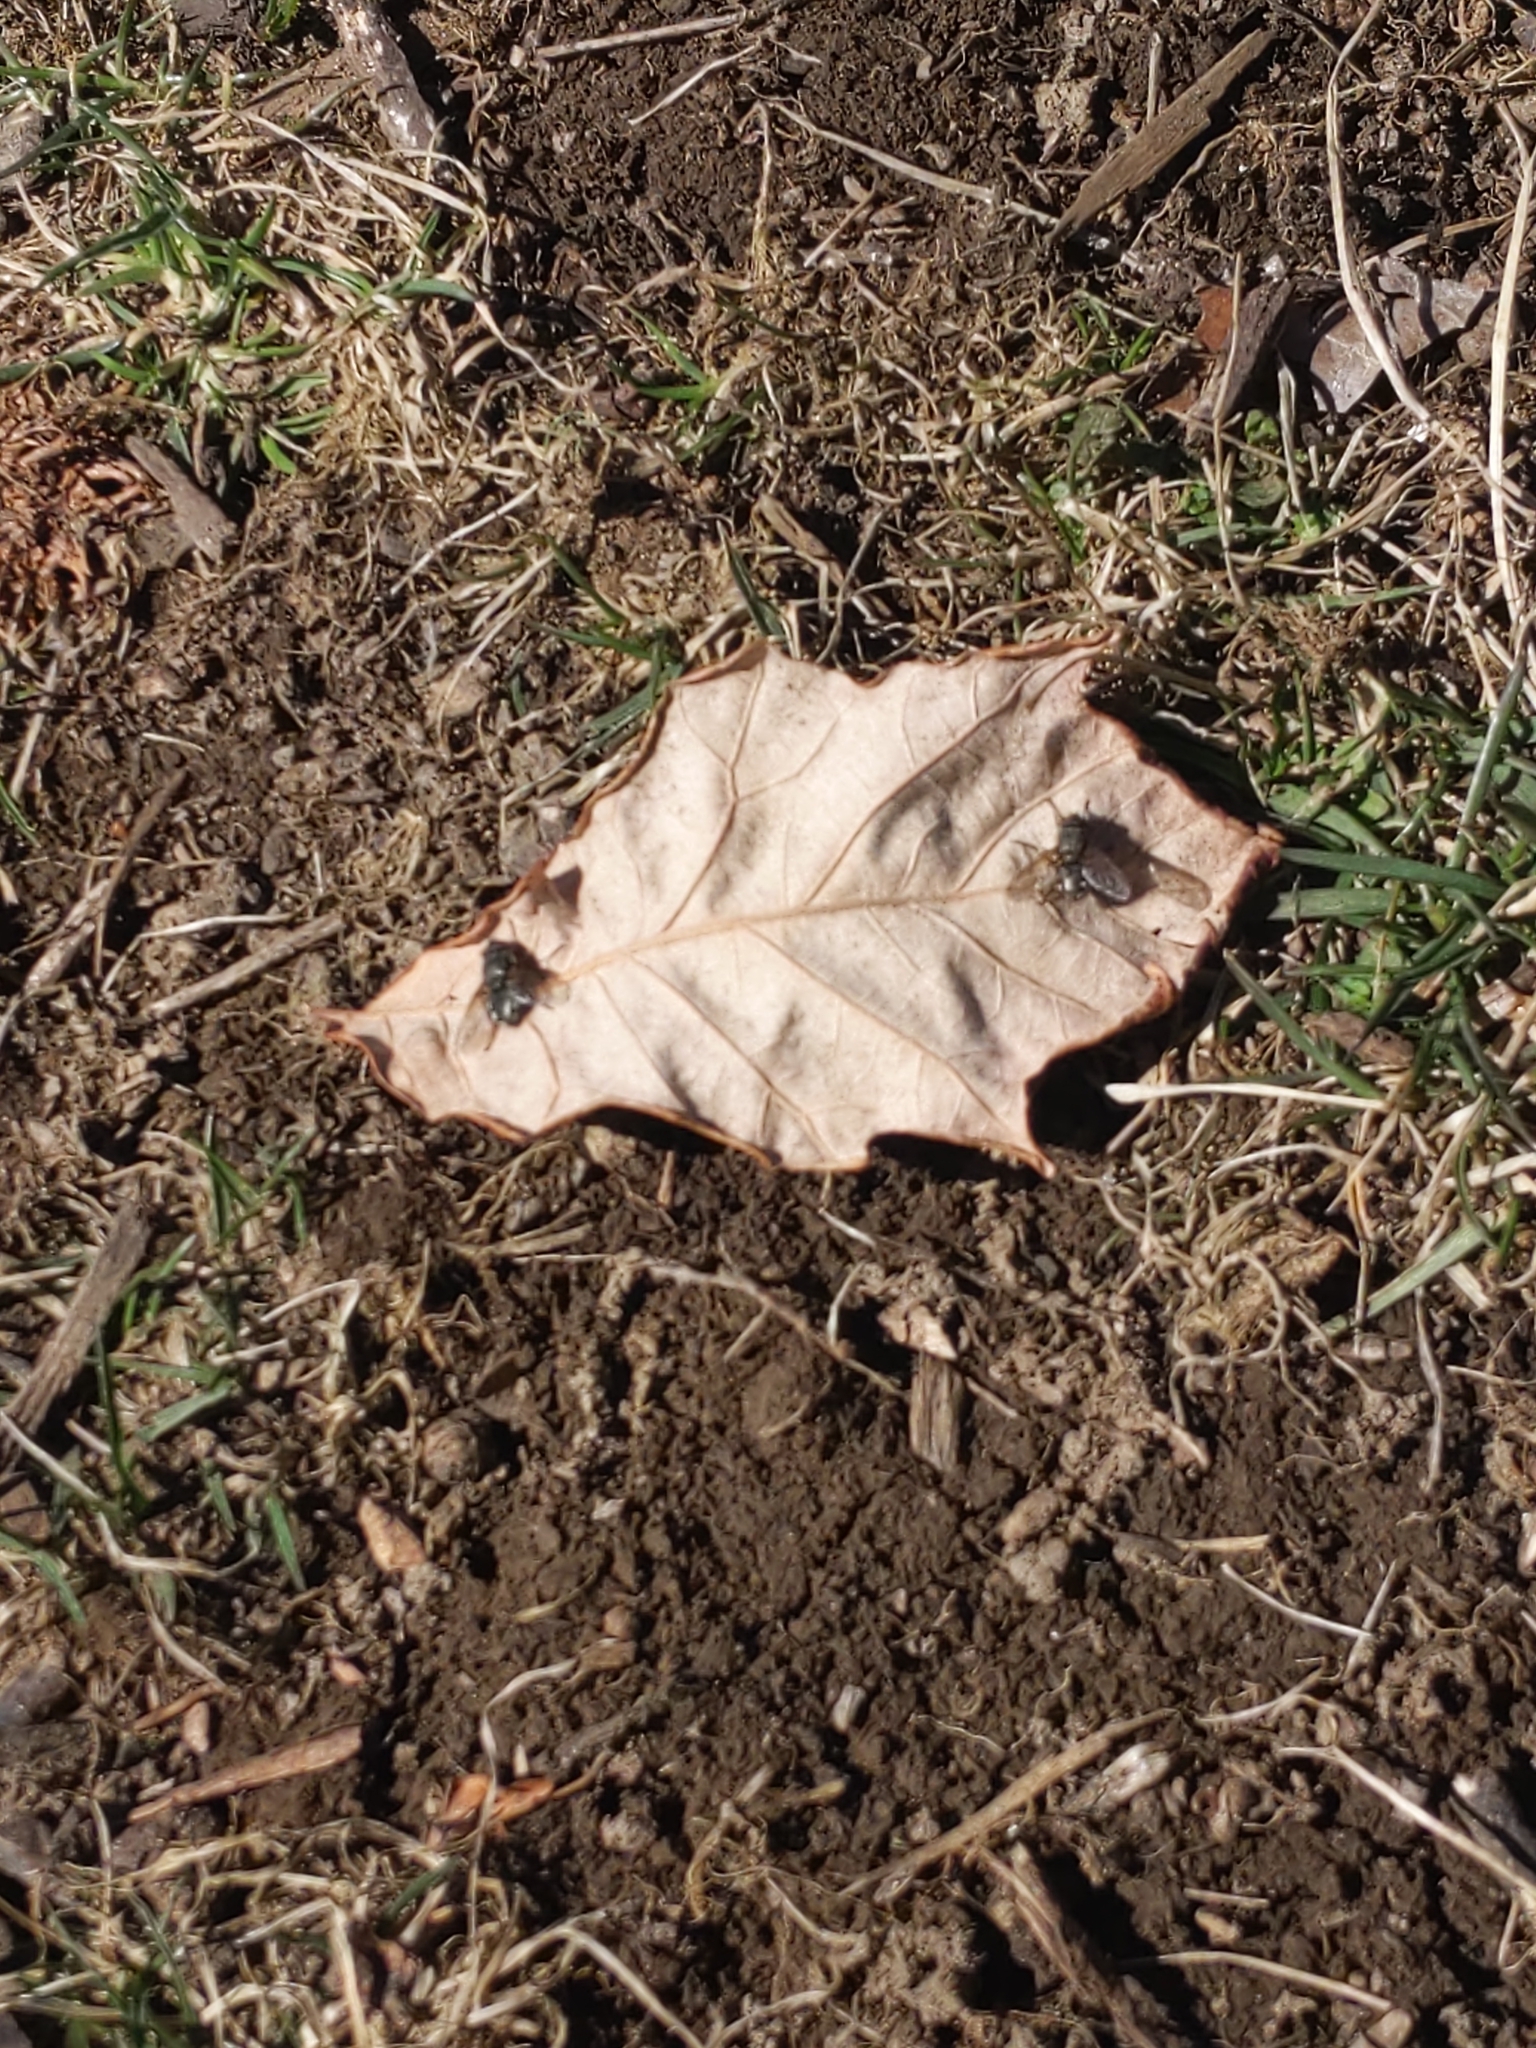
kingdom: Animalia
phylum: Arthropoda
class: Insecta
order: Diptera
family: Polleniidae
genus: Pollenia
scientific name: Pollenia
